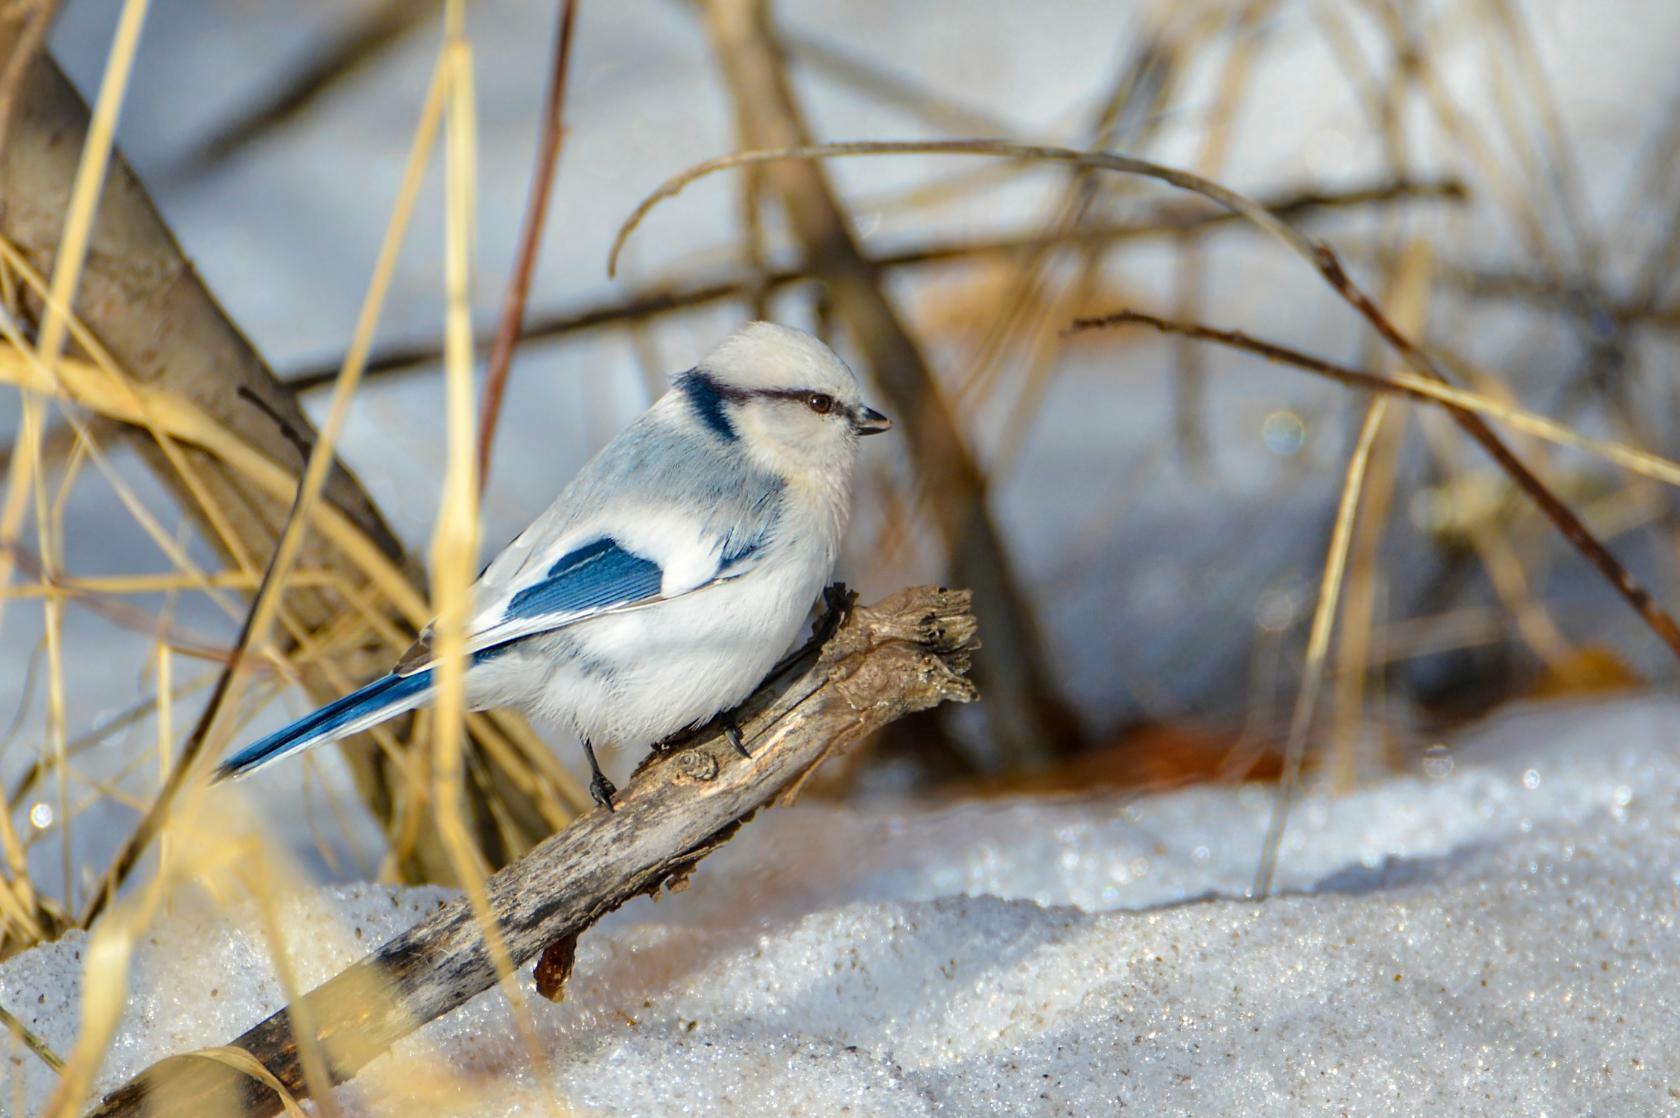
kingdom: Animalia
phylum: Chordata
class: Aves
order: Passeriformes
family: Paridae
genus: Cyanistes
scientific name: Cyanistes cyanus
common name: Azure tit
